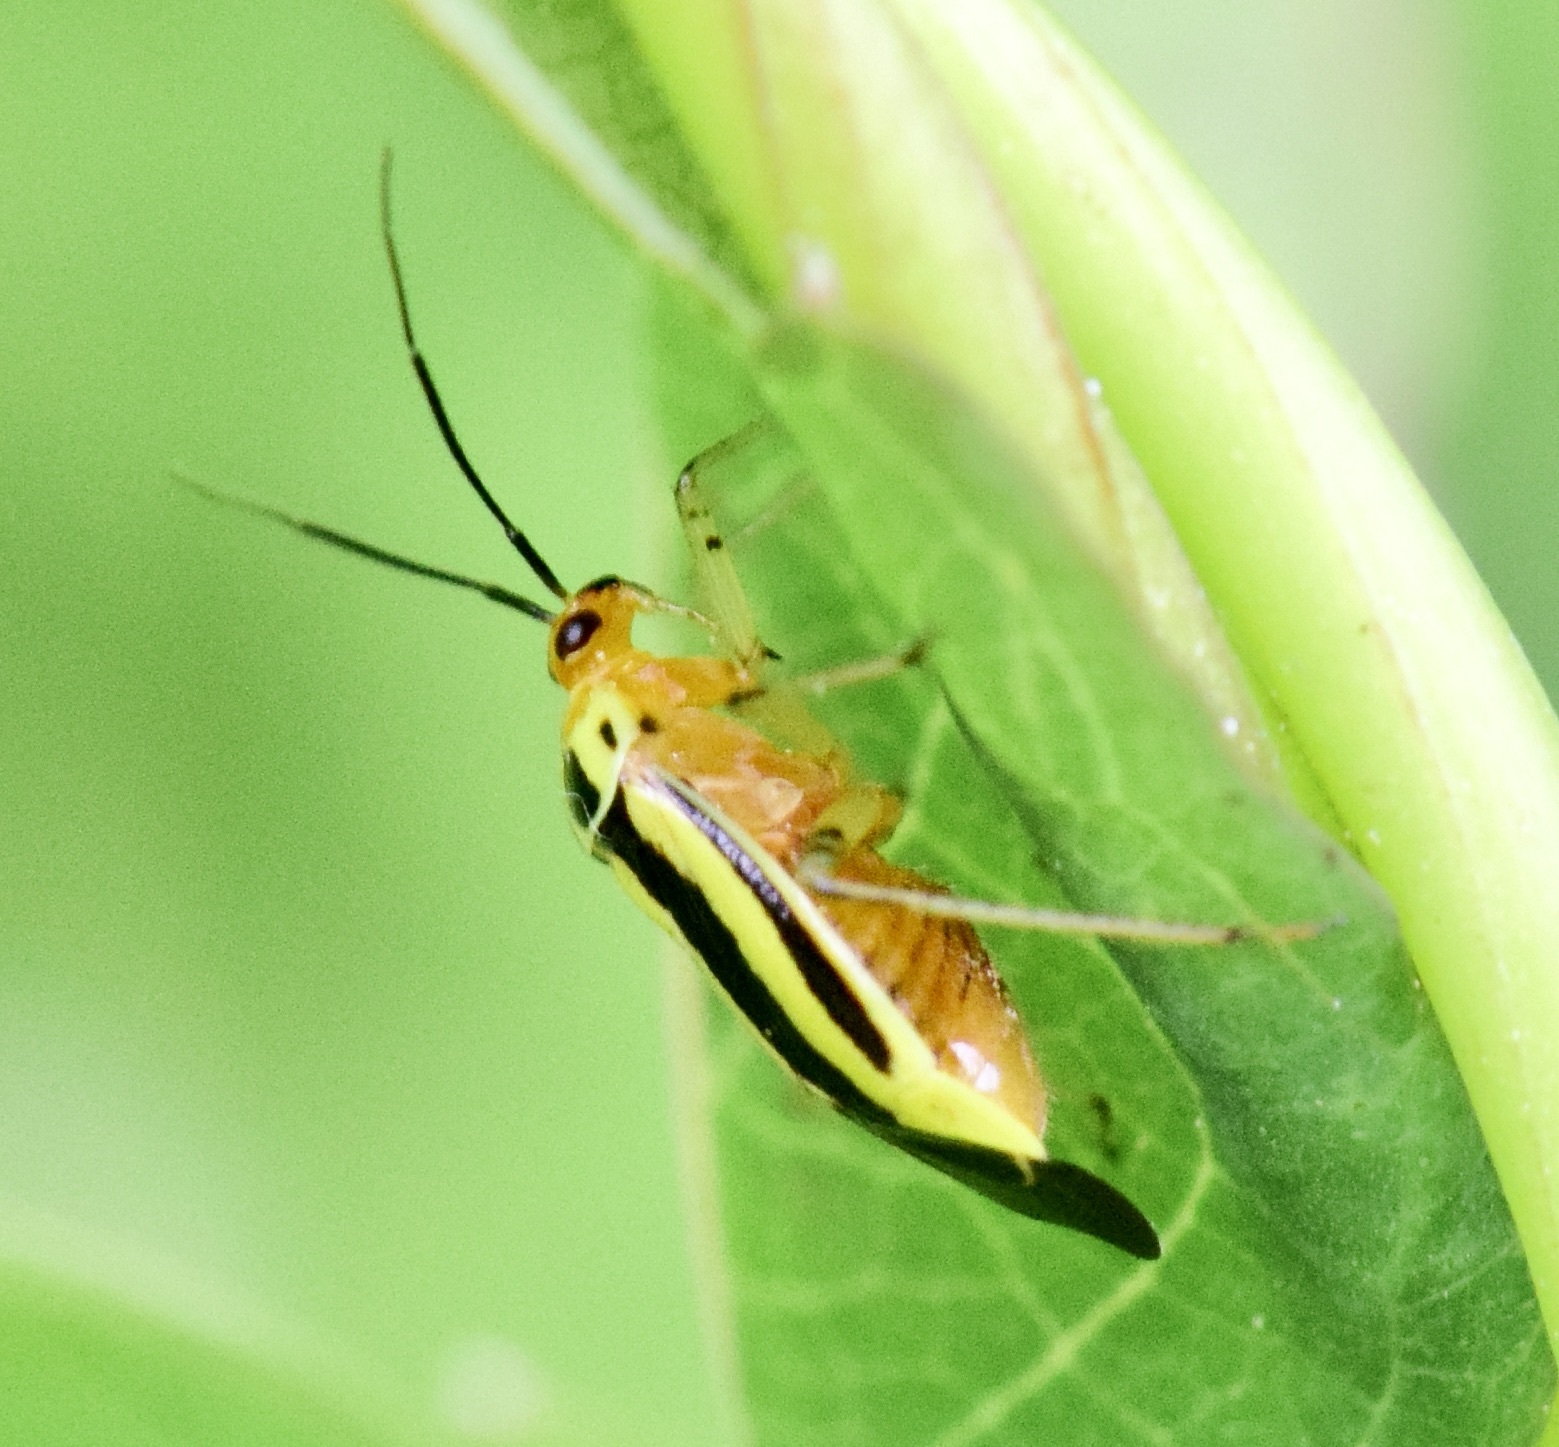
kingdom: Animalia
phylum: Arthropoda
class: Insecta
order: Hemiptera
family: Miridae
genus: Poecilocapsus
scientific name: Poecilocapsus lineatus
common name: Four-lined plant bug
